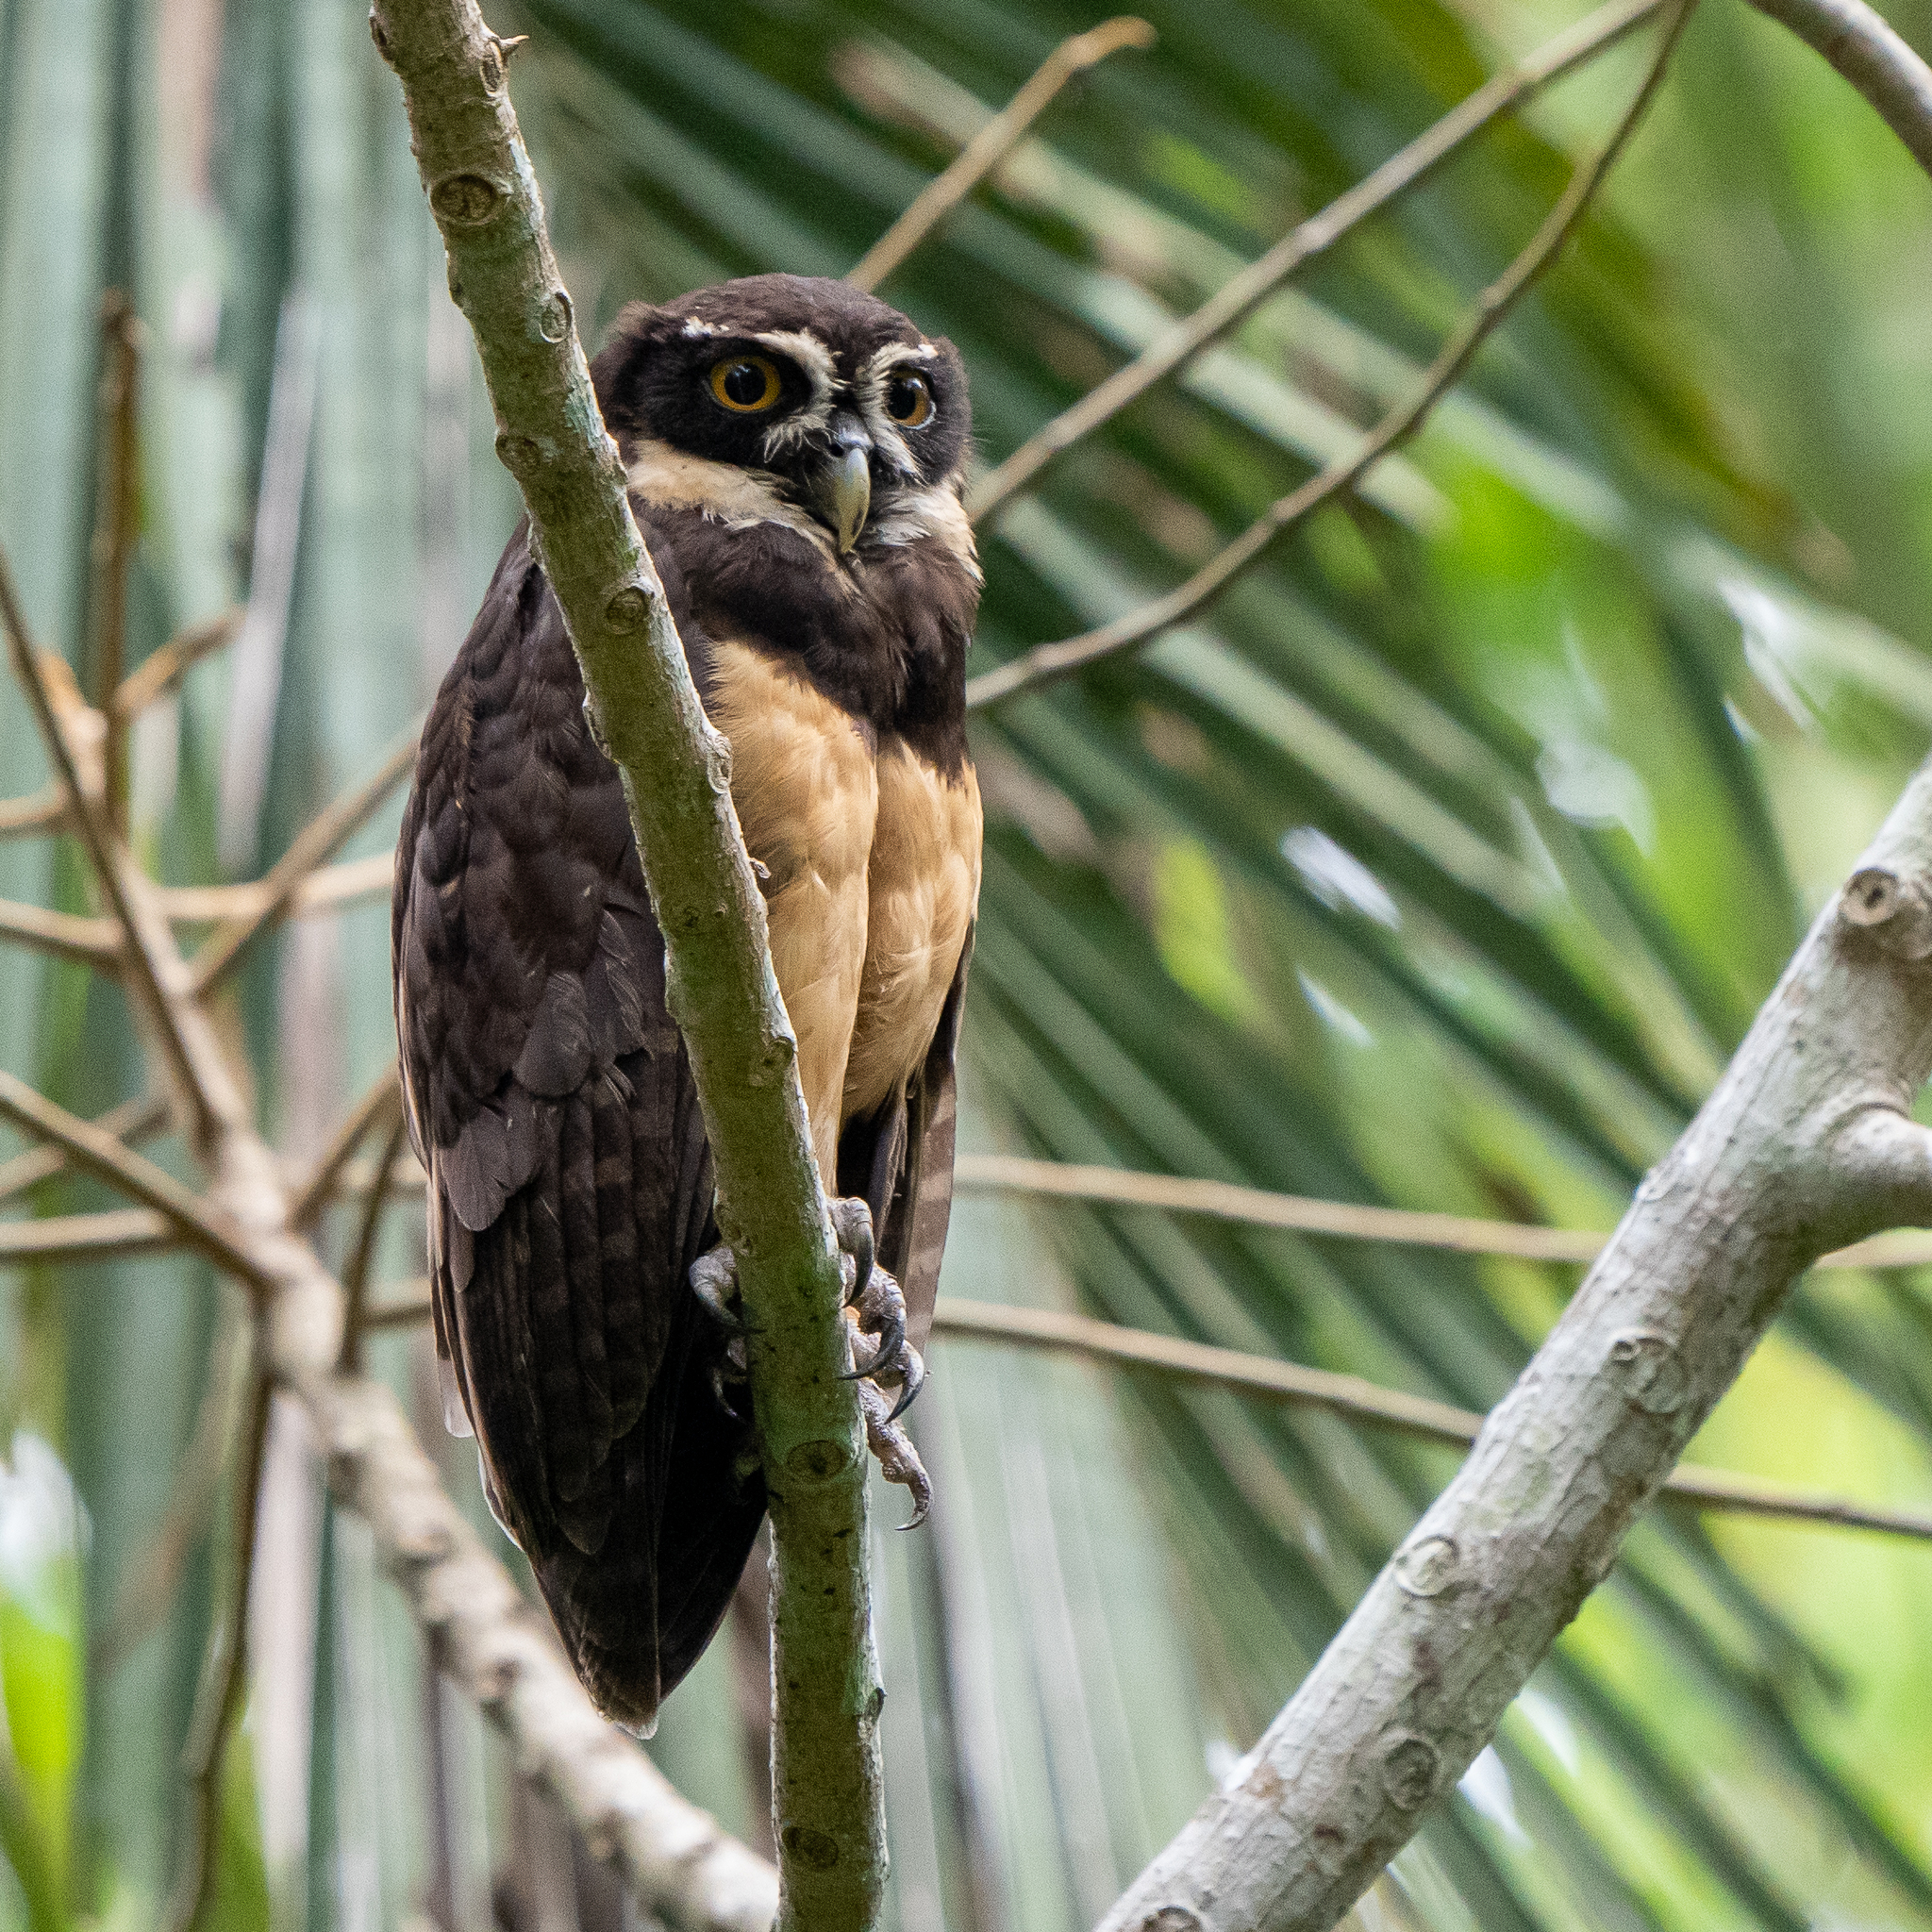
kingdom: Animalia
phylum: Chordata
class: Aves
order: Strigiformes
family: Strigidae
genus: Pulsatrix
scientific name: Pulsatrix perspicillata
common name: Spectacled owl
